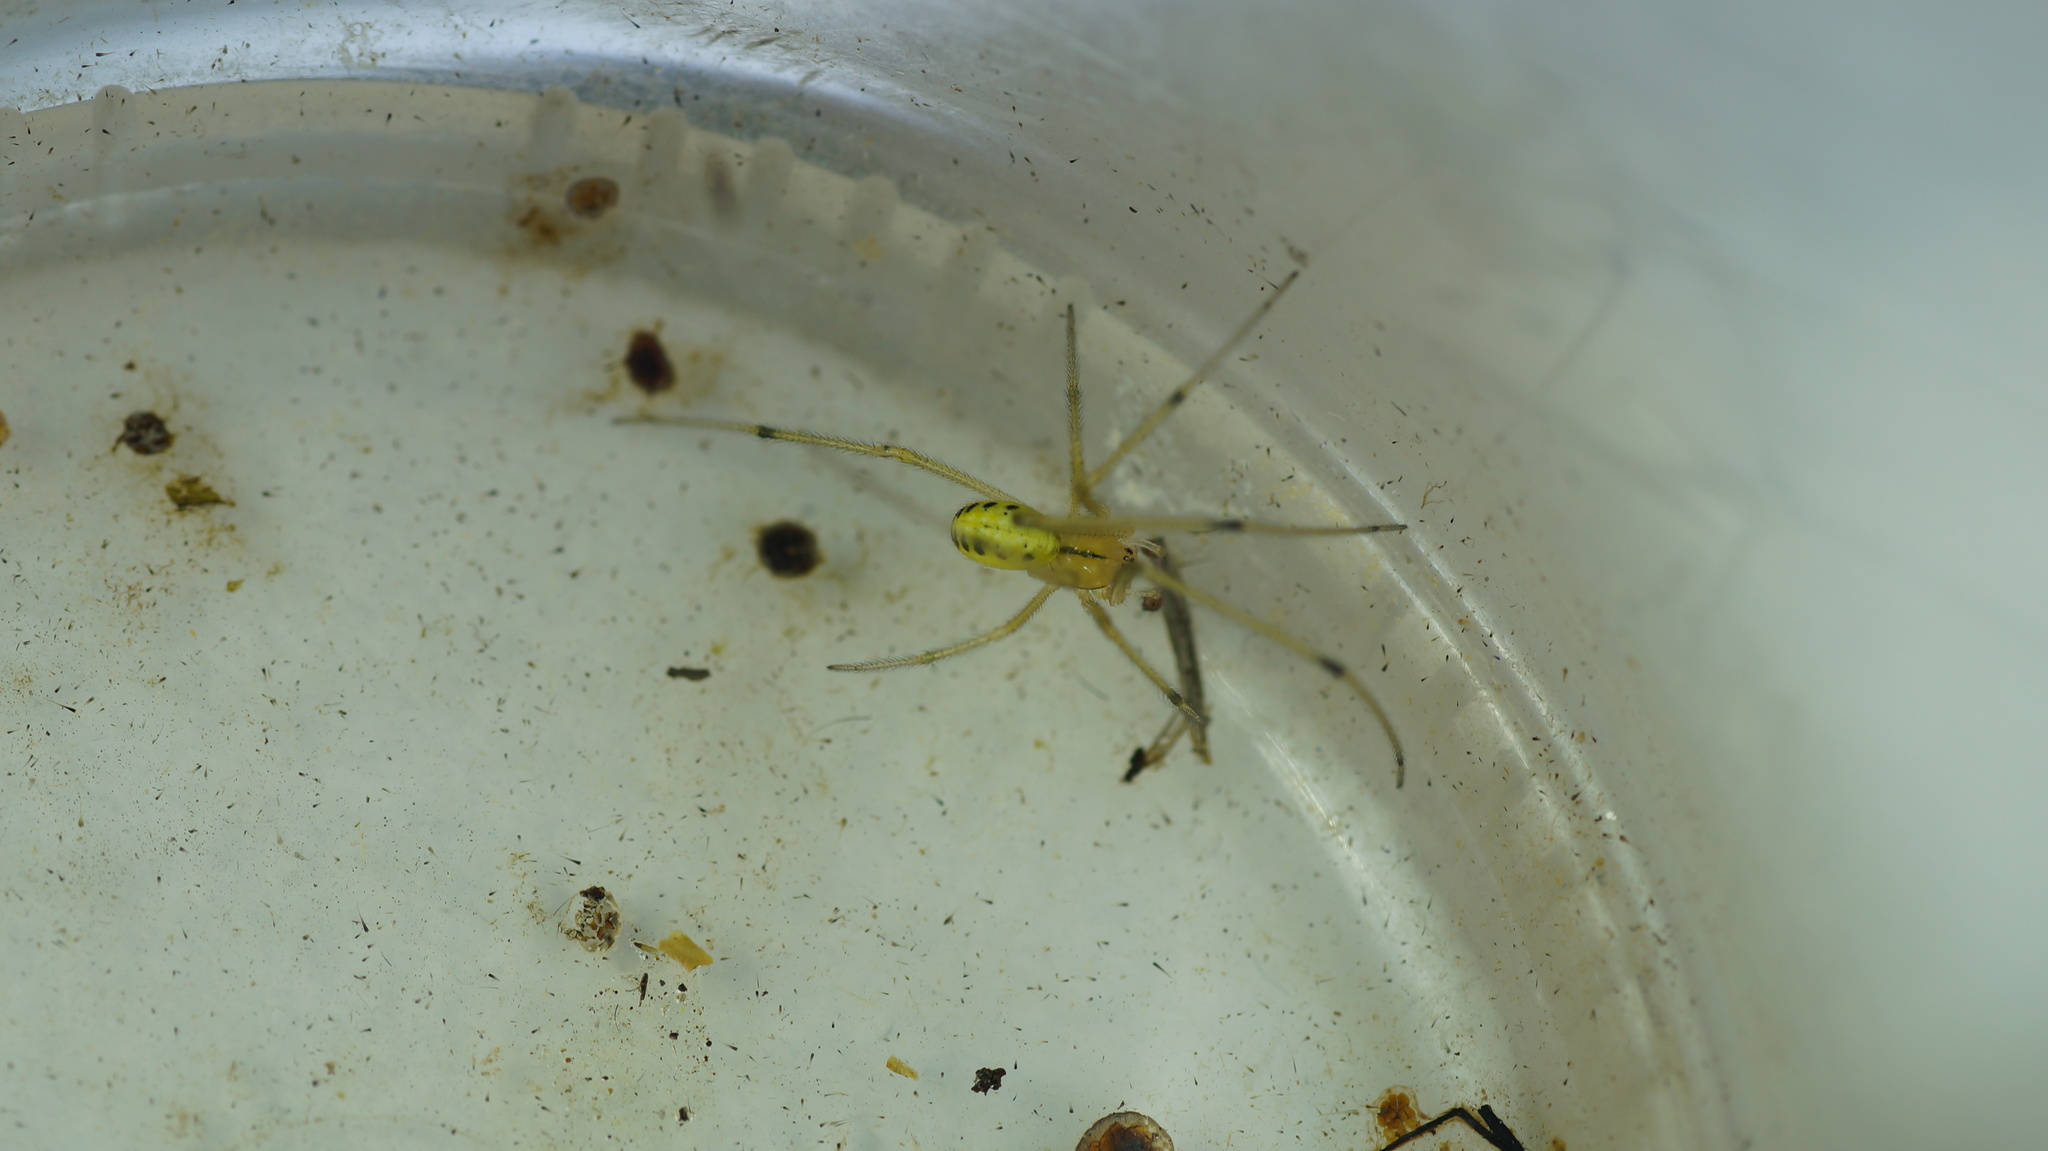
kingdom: Animalia
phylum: Arthropoda
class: Arachnida
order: Araneae
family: Theridiidae
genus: Enoplognatha
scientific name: Enoplognatha ovata
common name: Common candy-striped spider
